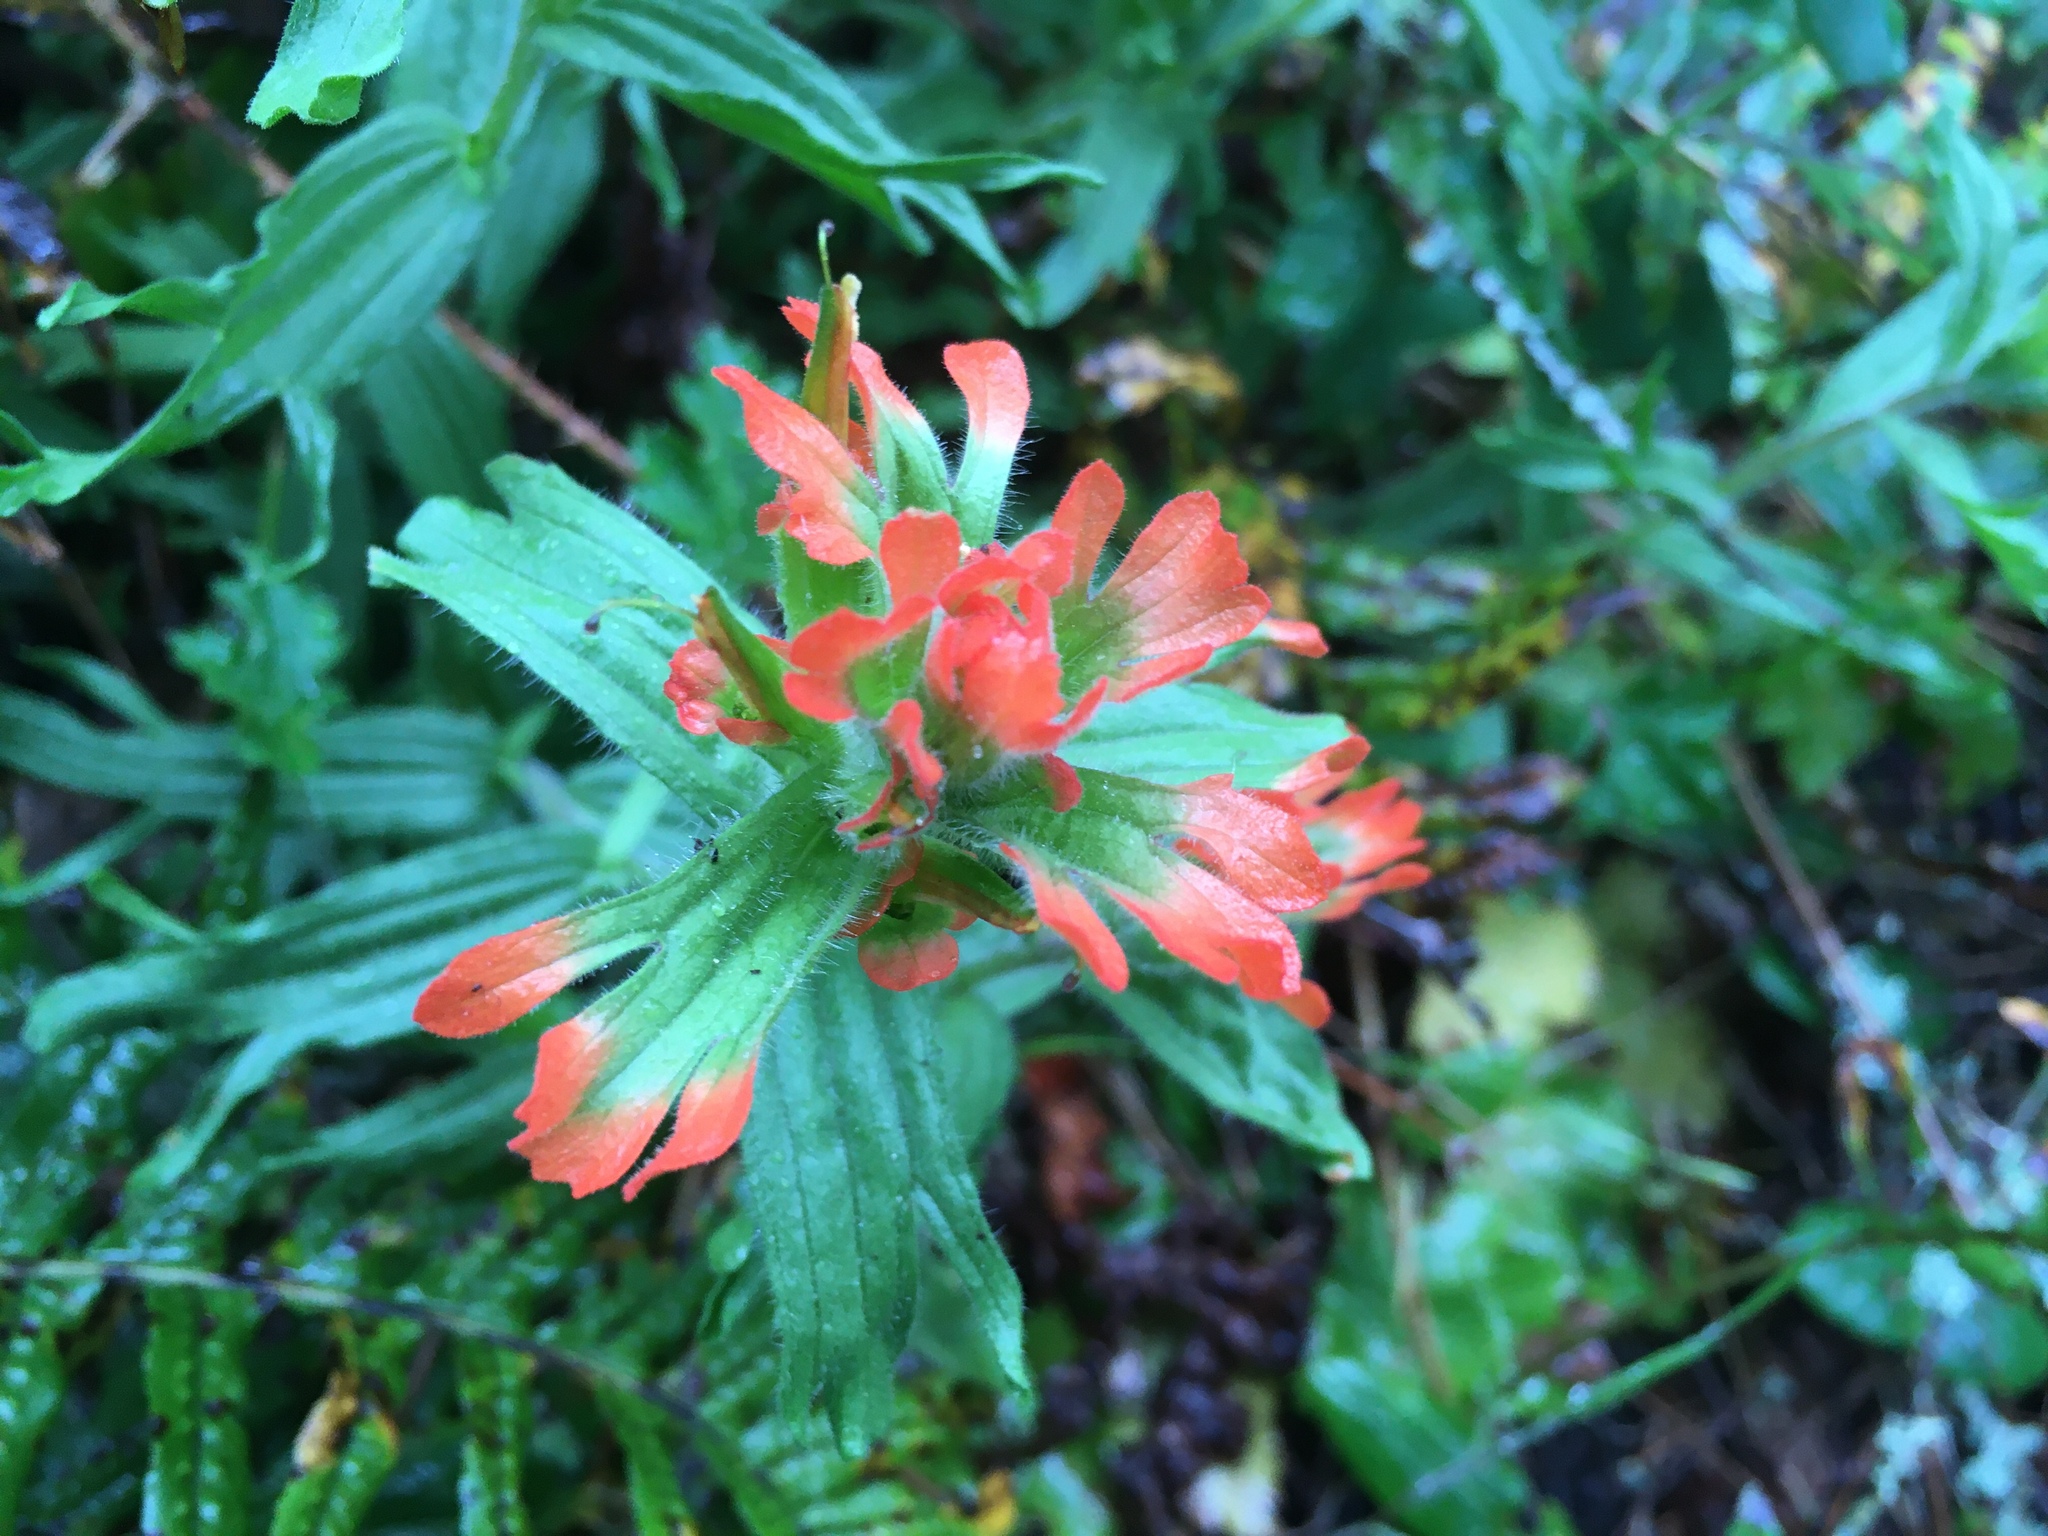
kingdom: Plantae
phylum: Tracheophyta
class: Magnoliopsida
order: Lamiales
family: Orobanchaceae
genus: Castilleja
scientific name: Castilleja hispida
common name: Bristly paintbrush
